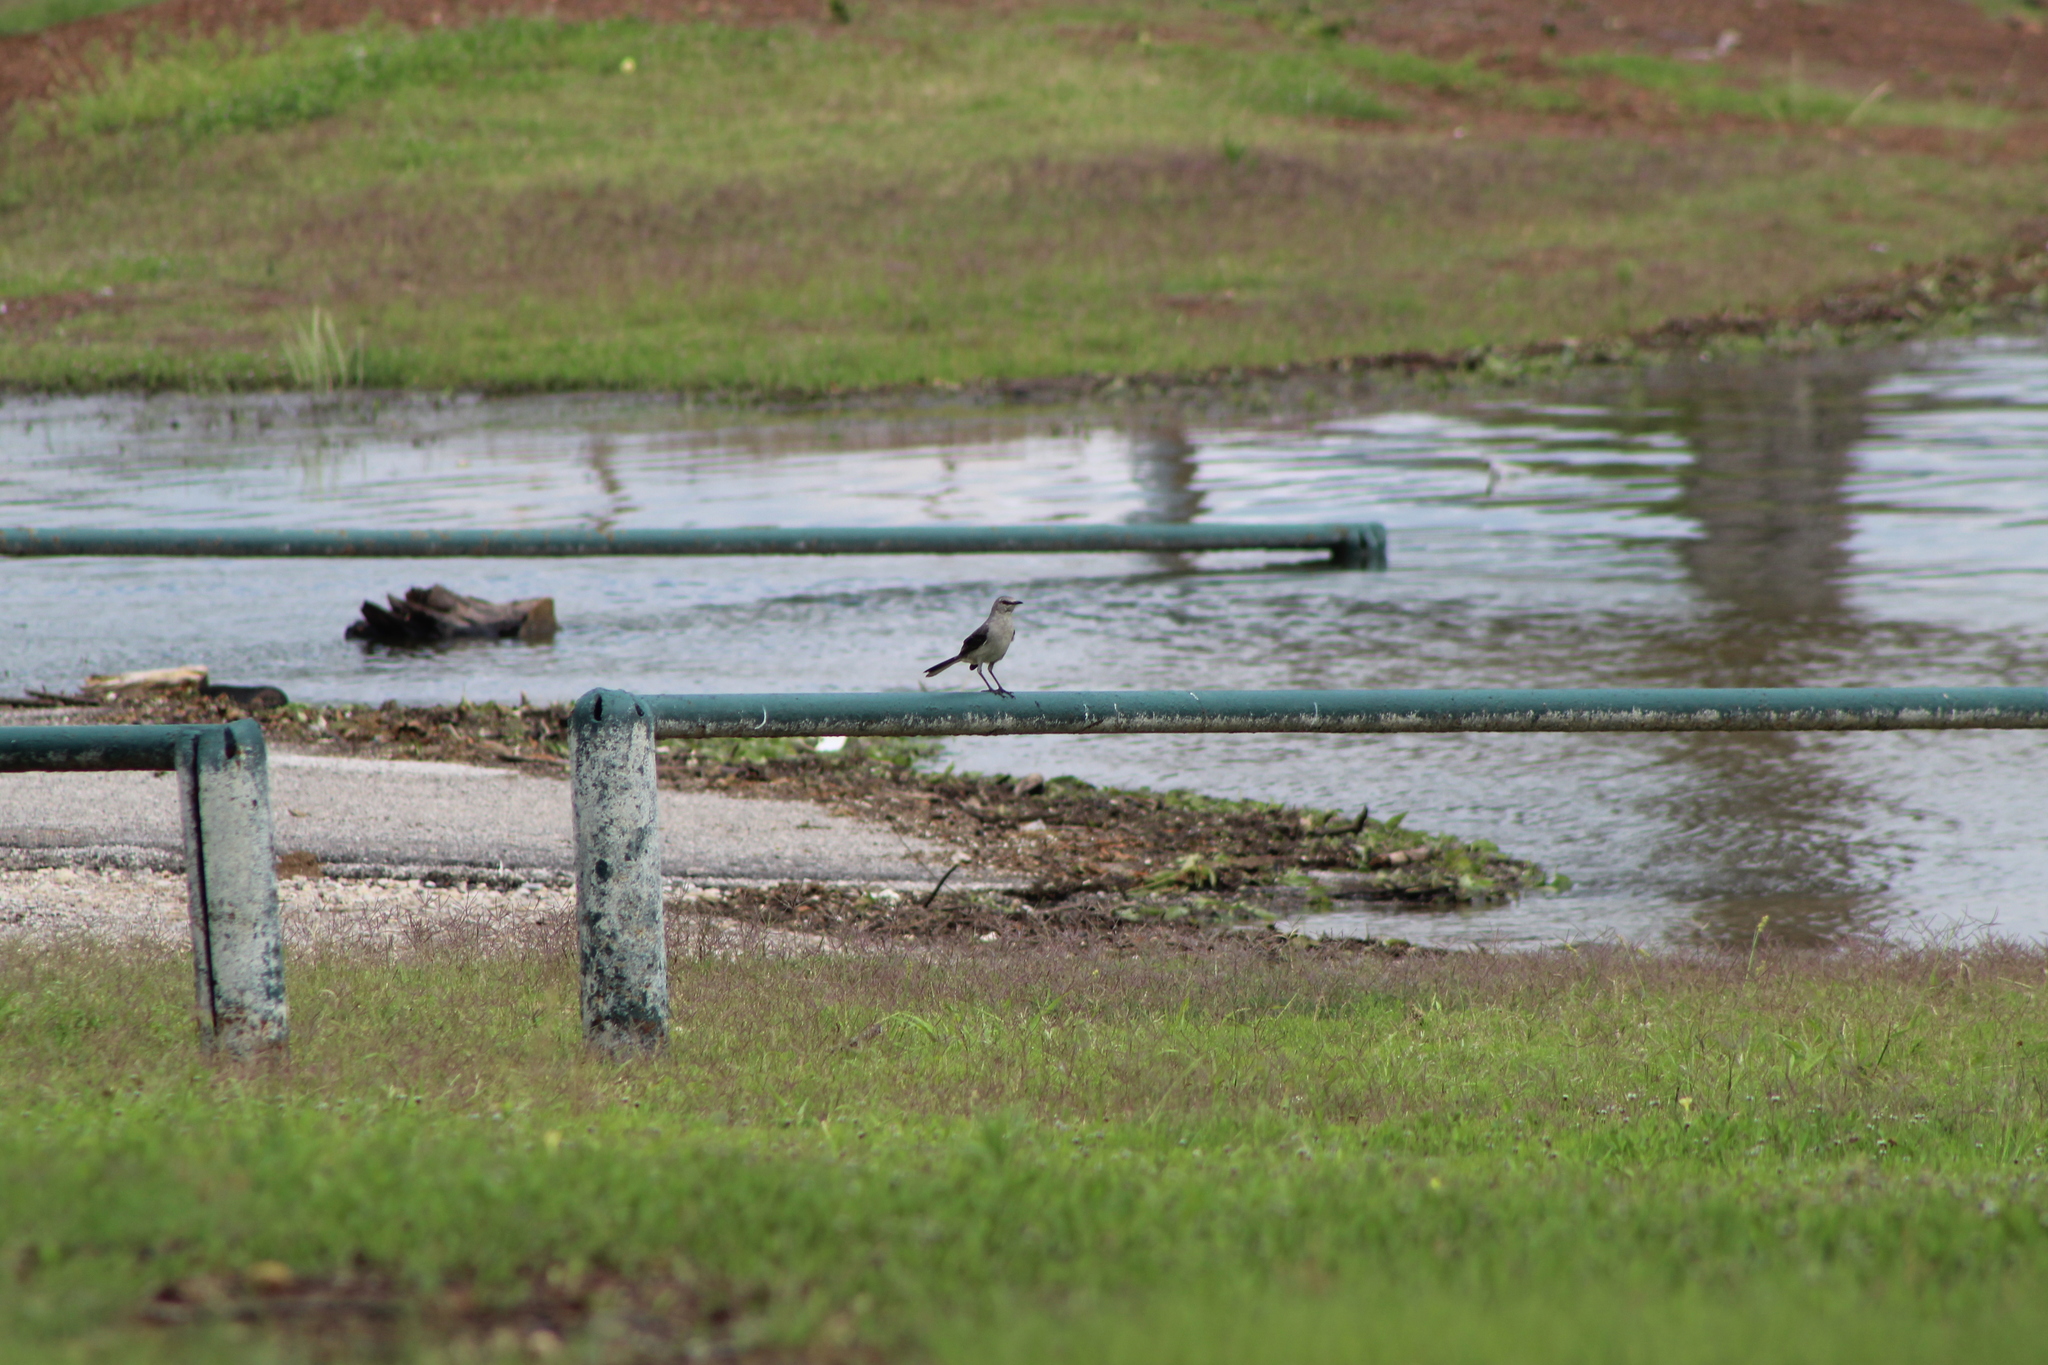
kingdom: Animalia
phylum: Chordata
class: Aves
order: Passeriformes
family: Mimidae
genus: Mimus
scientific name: Mimus polyglottos
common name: Northern mockingbird
